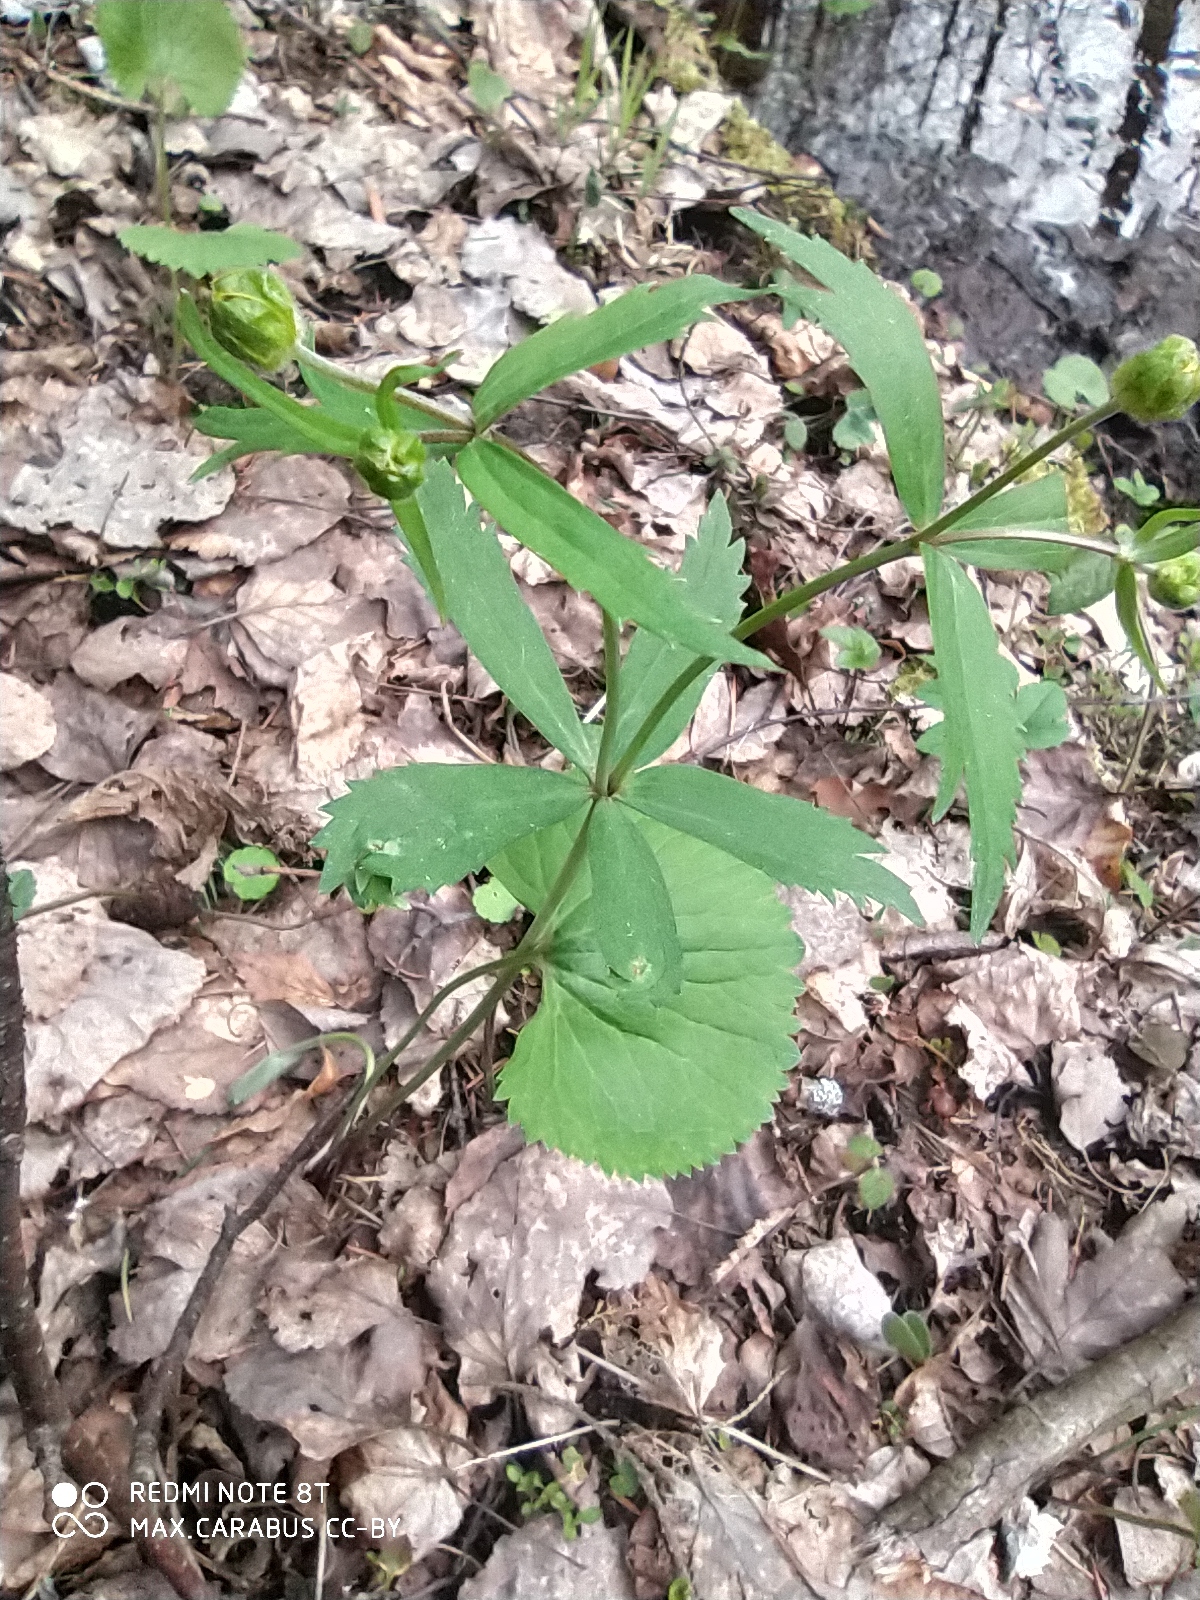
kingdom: Plantae
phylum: Tracheophyta
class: Magnoliopsida
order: Ranunculales
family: Ranunculaceae
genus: Ranunculus
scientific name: Ranunculus cassubicus
